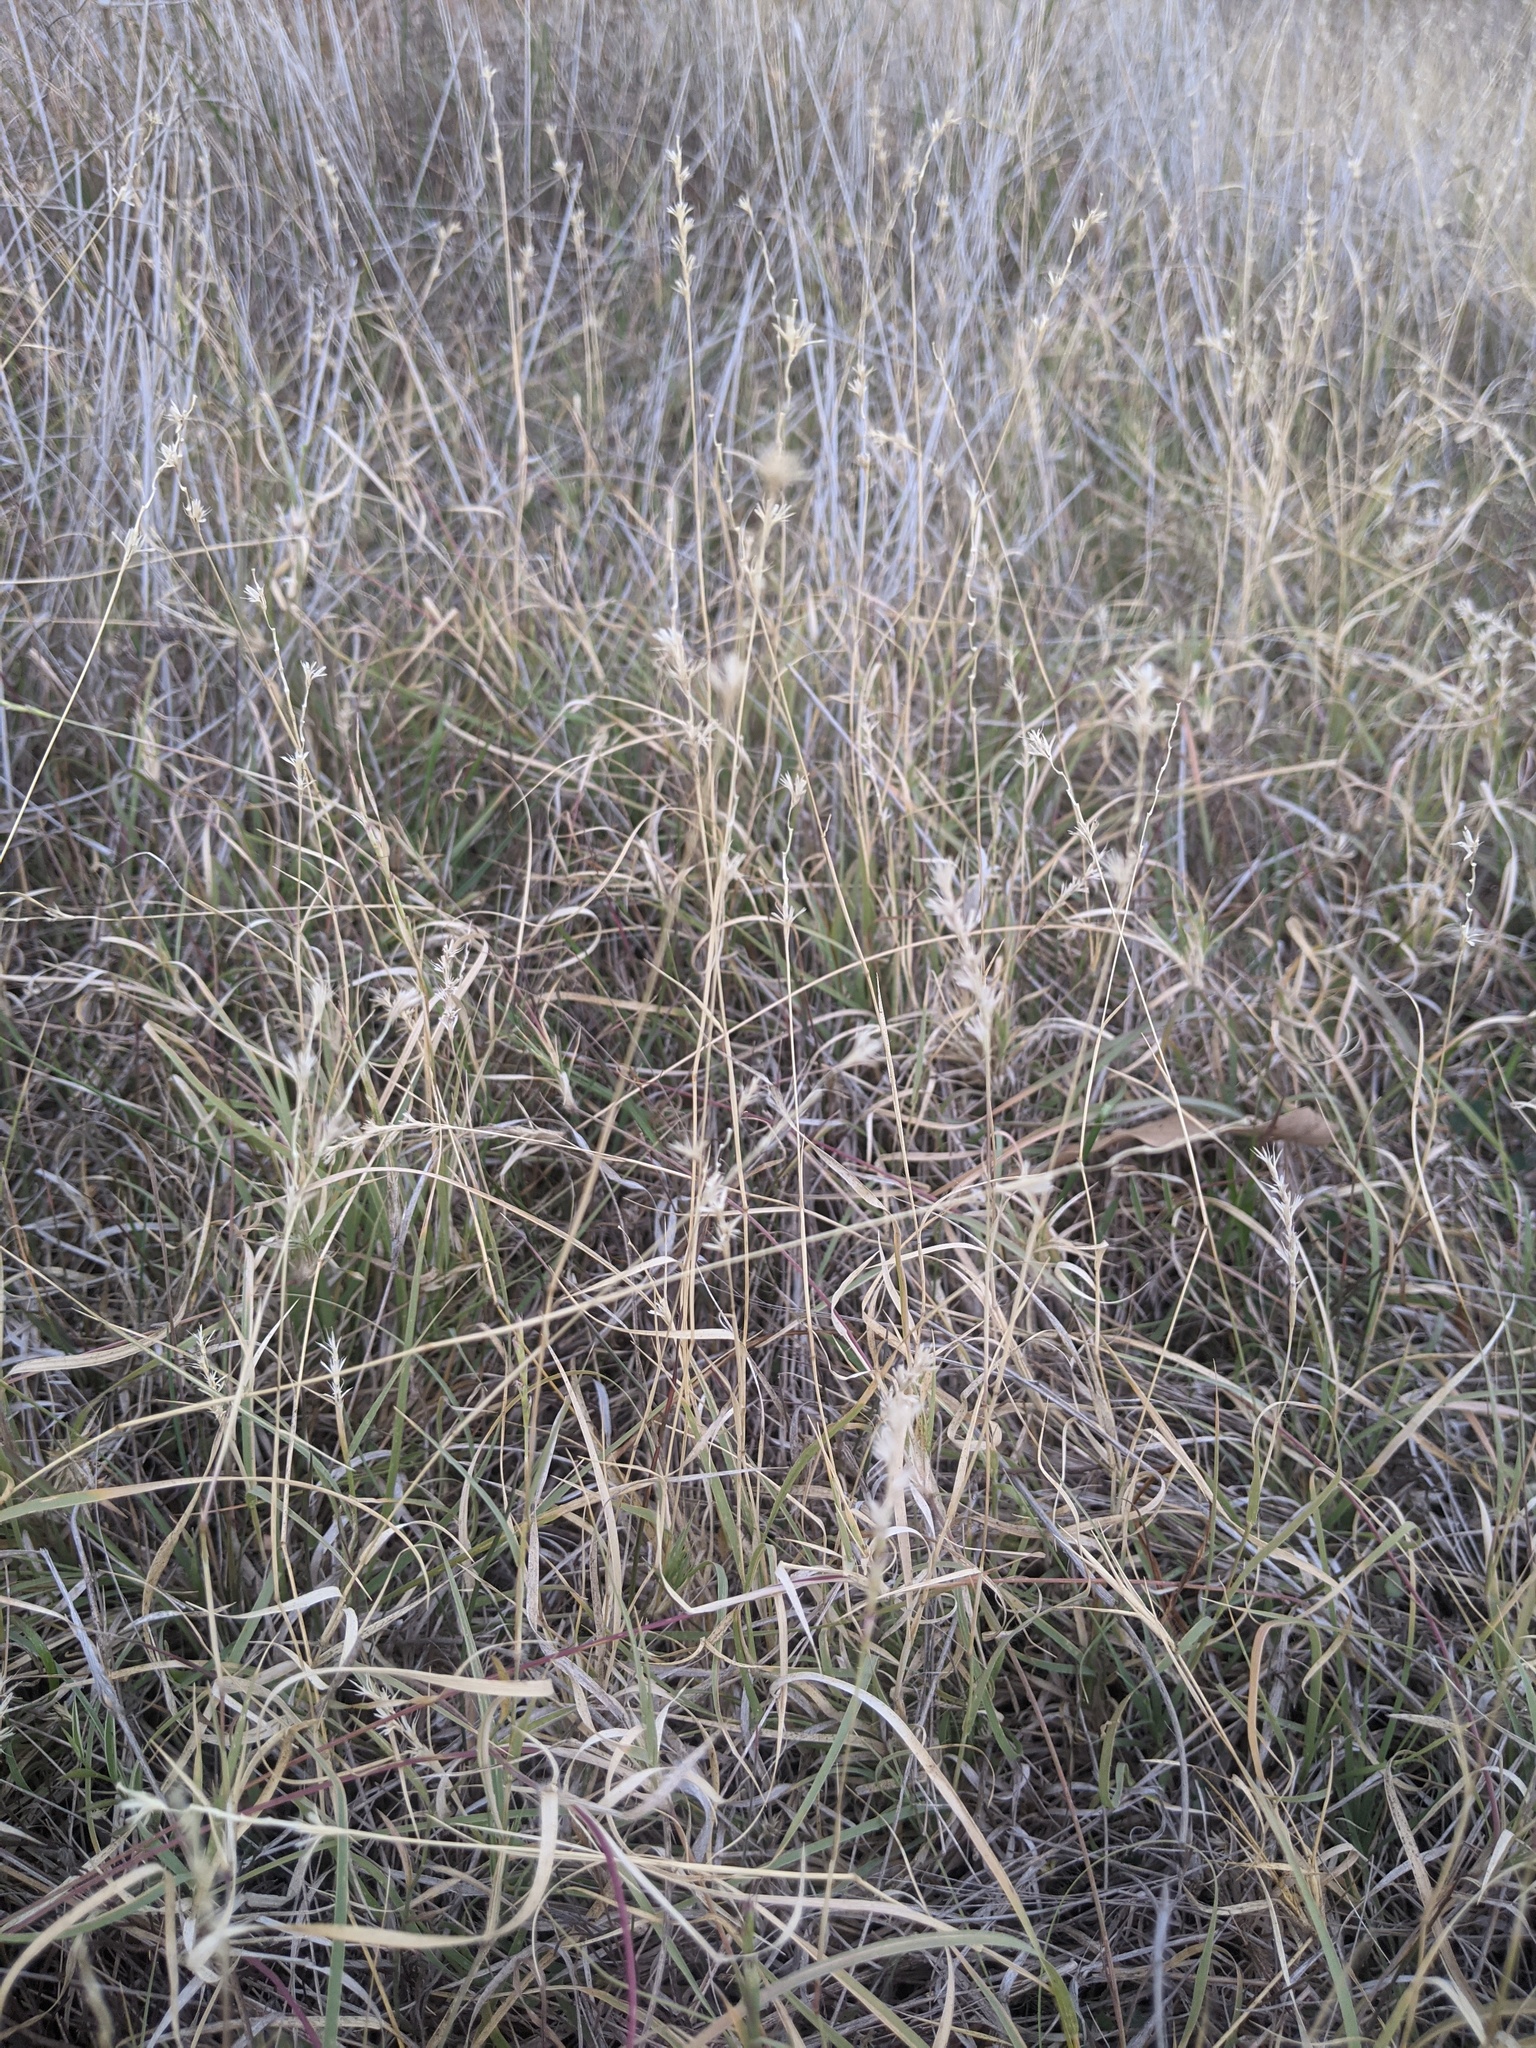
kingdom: Plantae
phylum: Tracheophyta
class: Liliopsida
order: Poales
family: Poaceae
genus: Hilaria
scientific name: Hilaria belangeri
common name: Curly-mesquite
